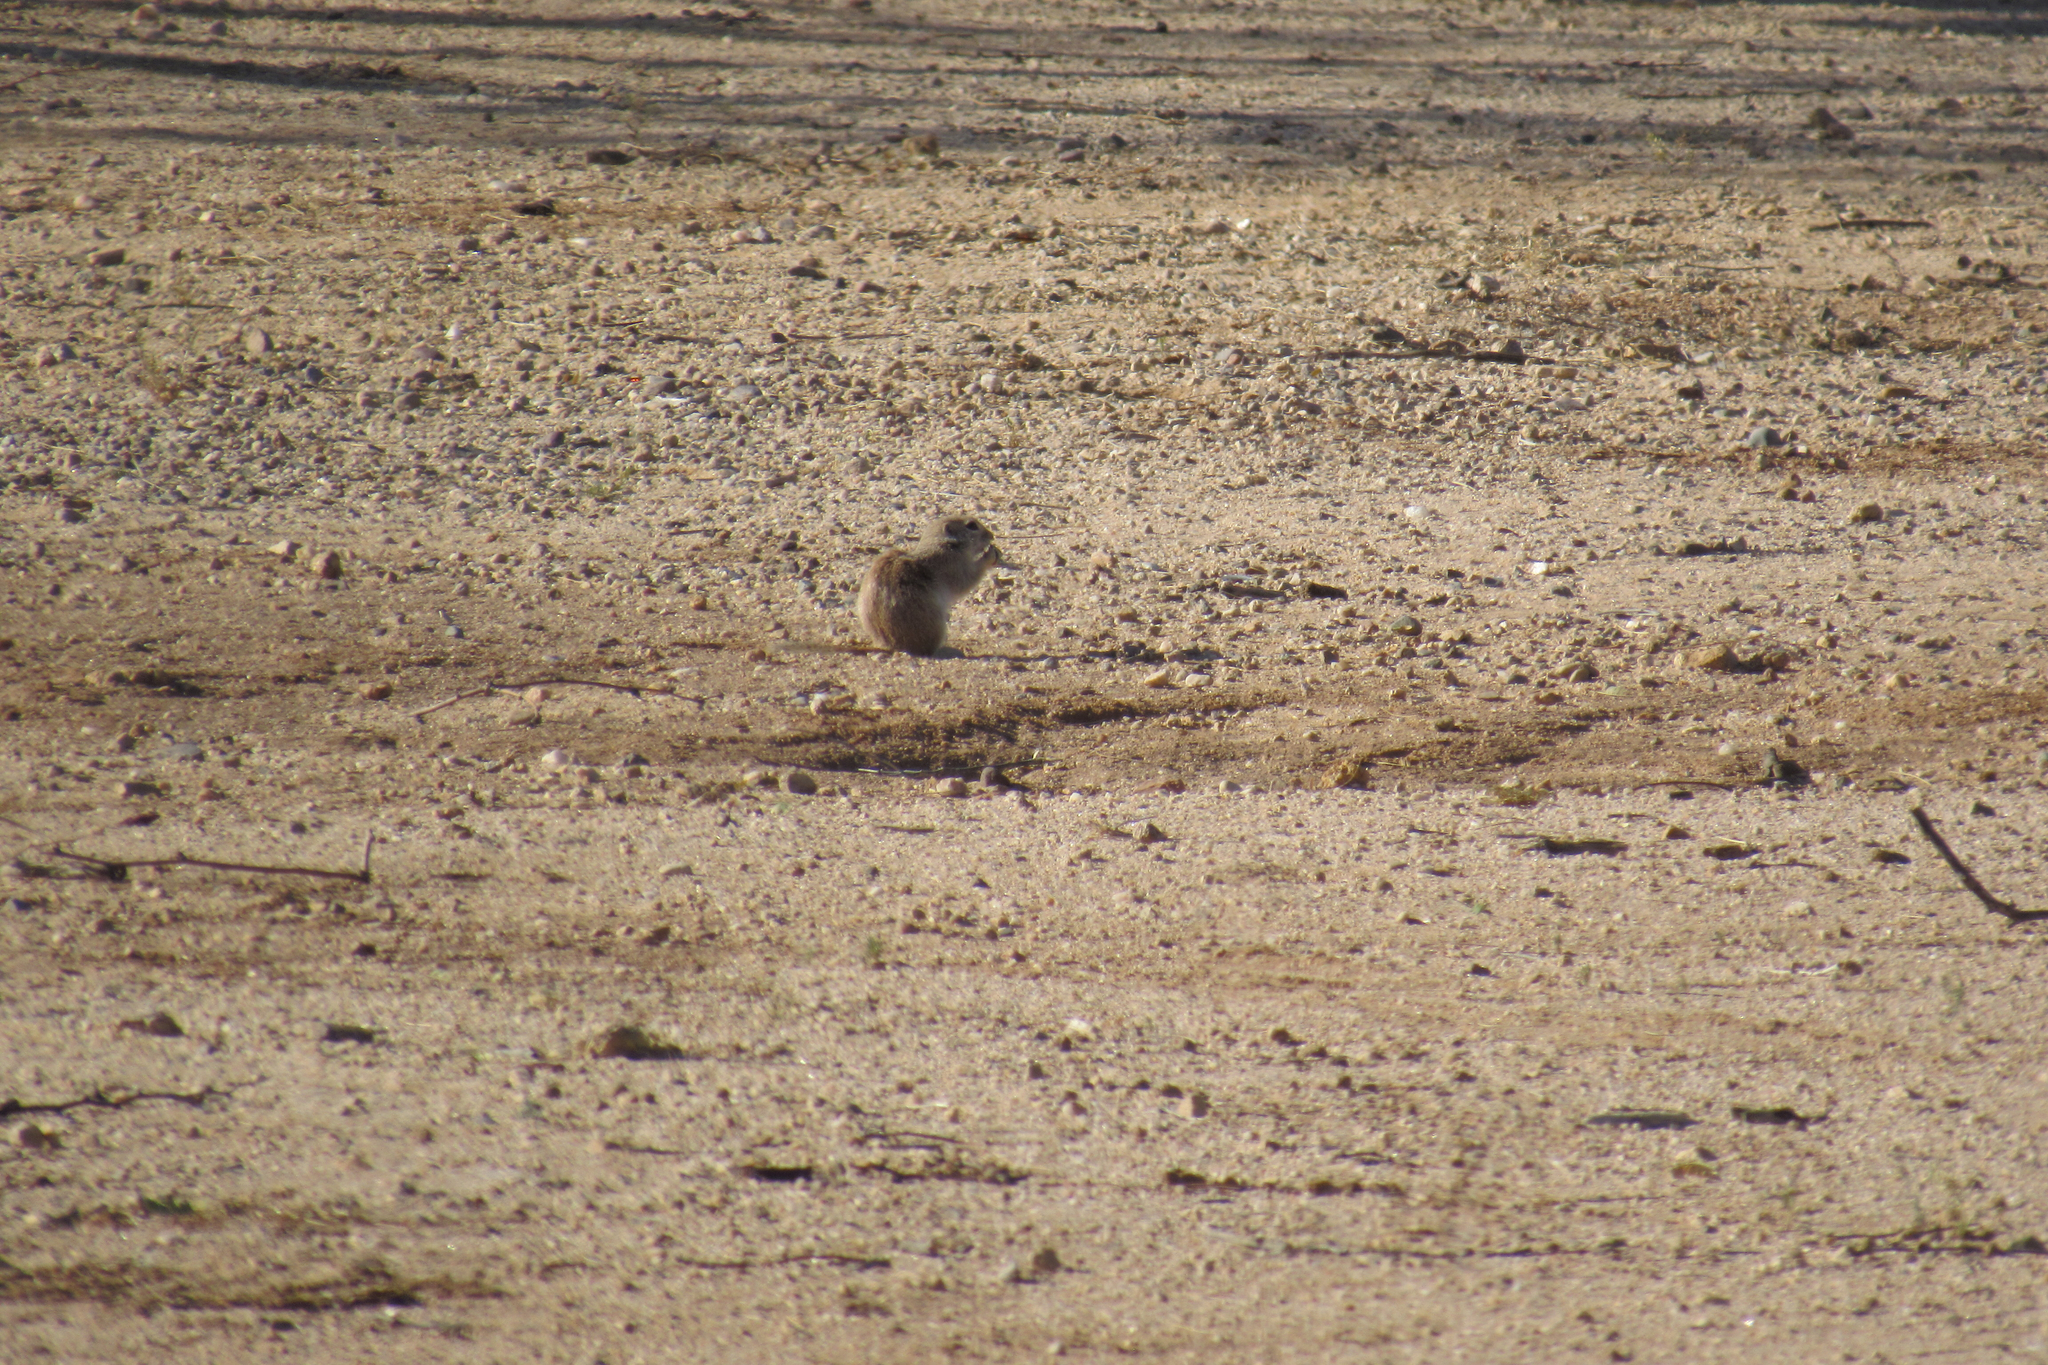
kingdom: Animalia
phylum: Chordata
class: Mammalia
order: Rodentia
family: Sciuridae
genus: Xerospermophilus
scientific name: Xerospermophilus tereticaudus
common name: Round-tailed ground squirrel
